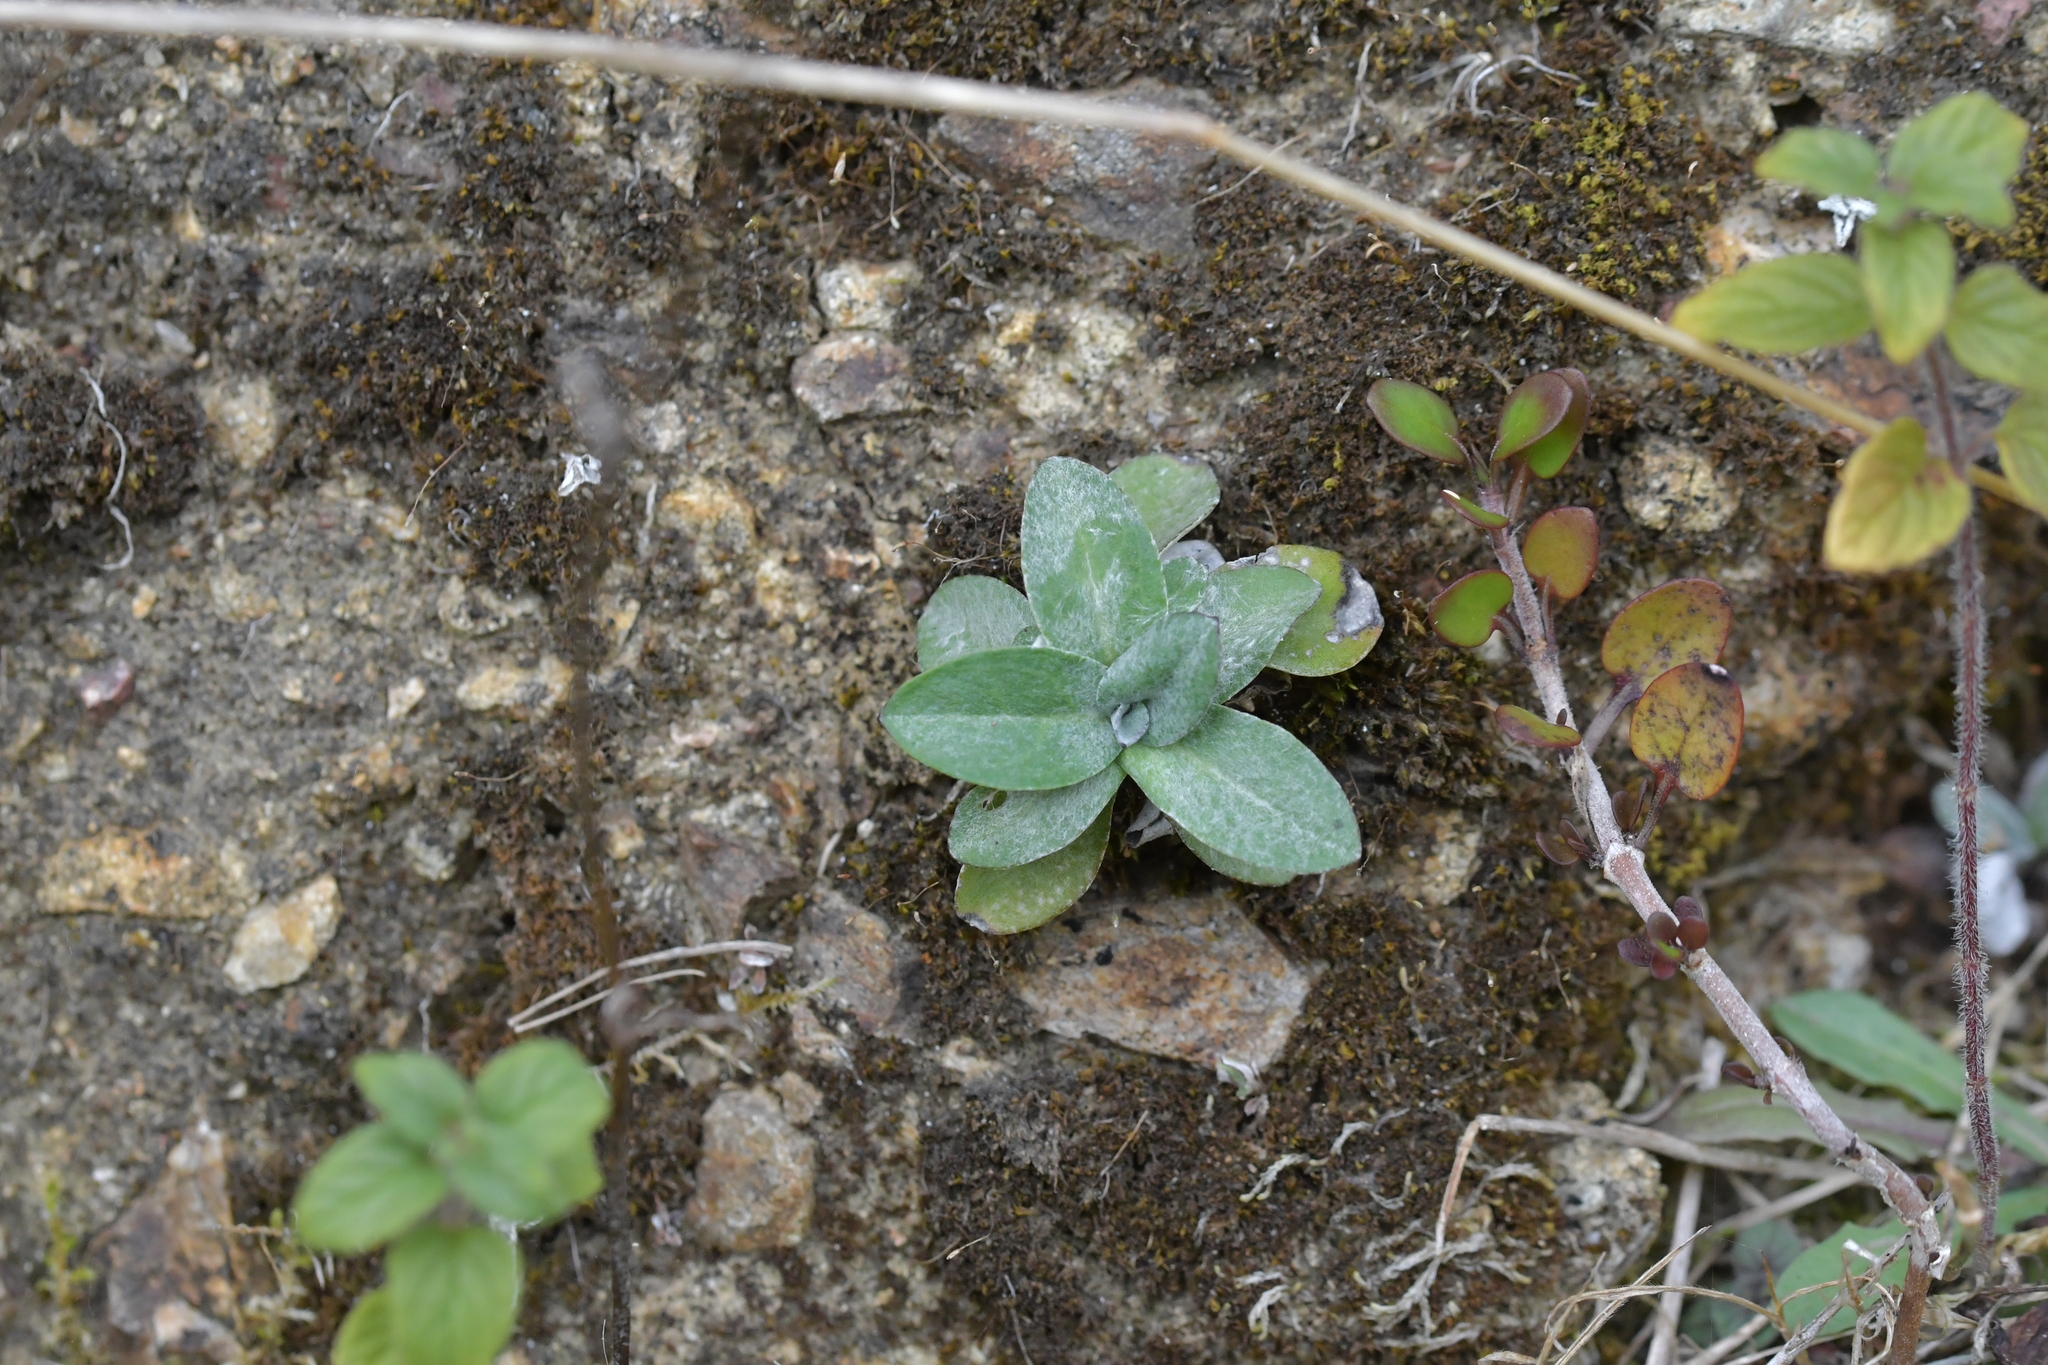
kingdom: Plantae
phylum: Tracheophyta
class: Magnoliopsida
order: Asterales
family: Asteraceae
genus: Helichrysum
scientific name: Helichrysum luteoalbum
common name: Daisy
